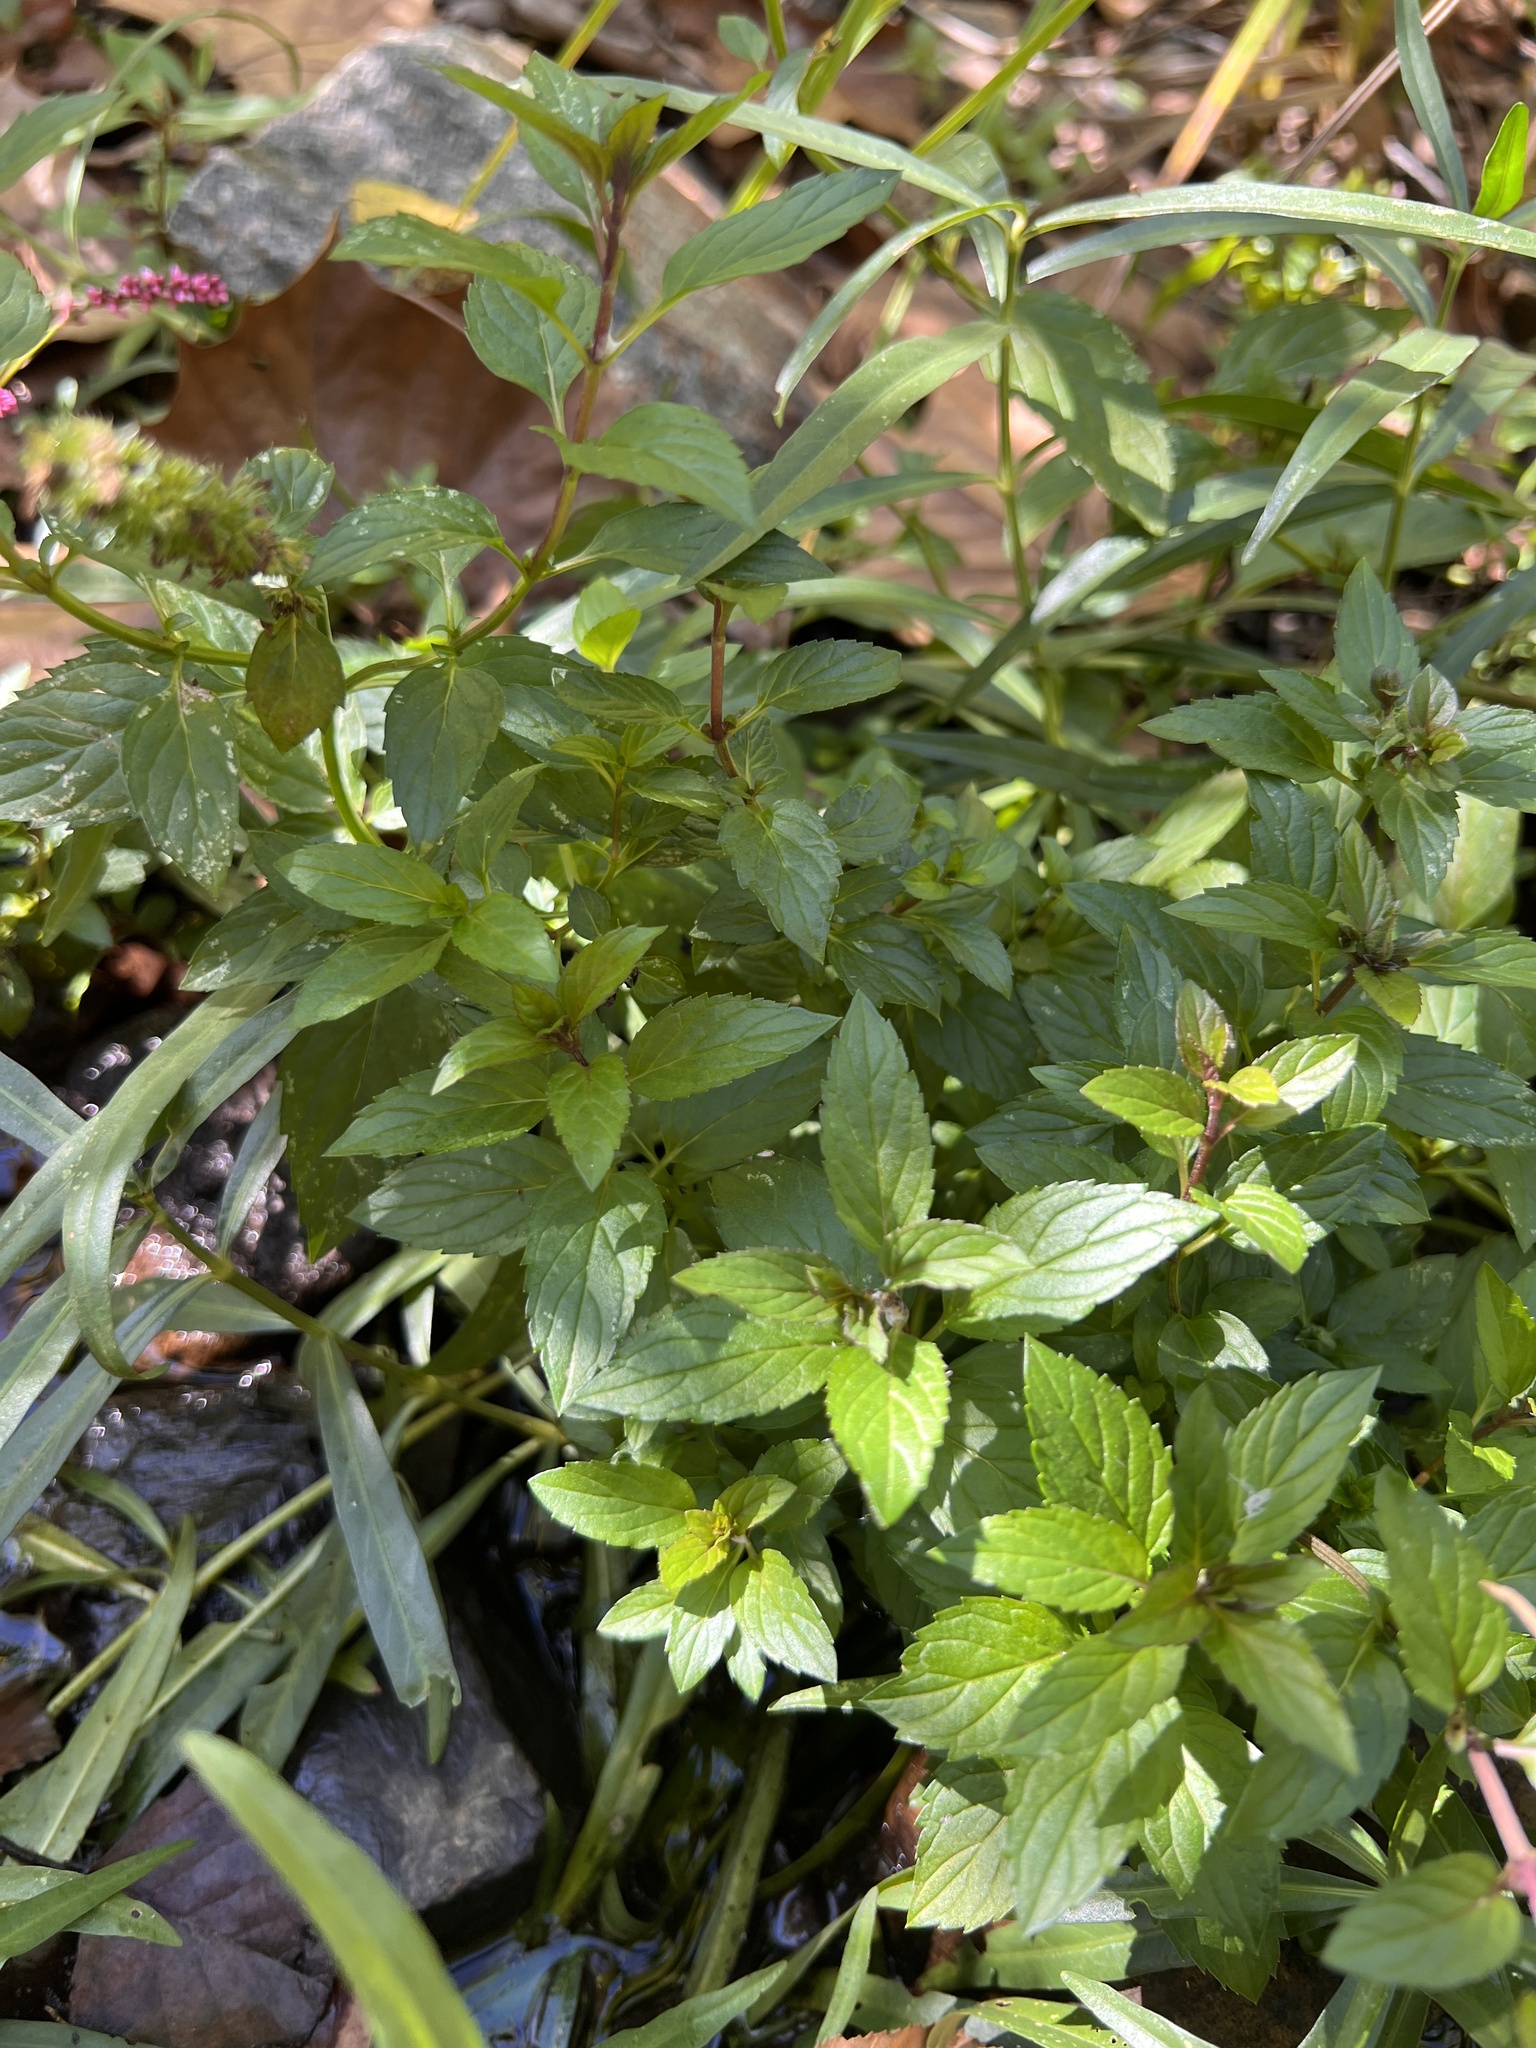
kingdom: Plantae
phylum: Tracheophyta
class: Magnoliopsida
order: Lamiales
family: Lamiaceae
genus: Mentha
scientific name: Mentha spicata
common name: Spearmint
